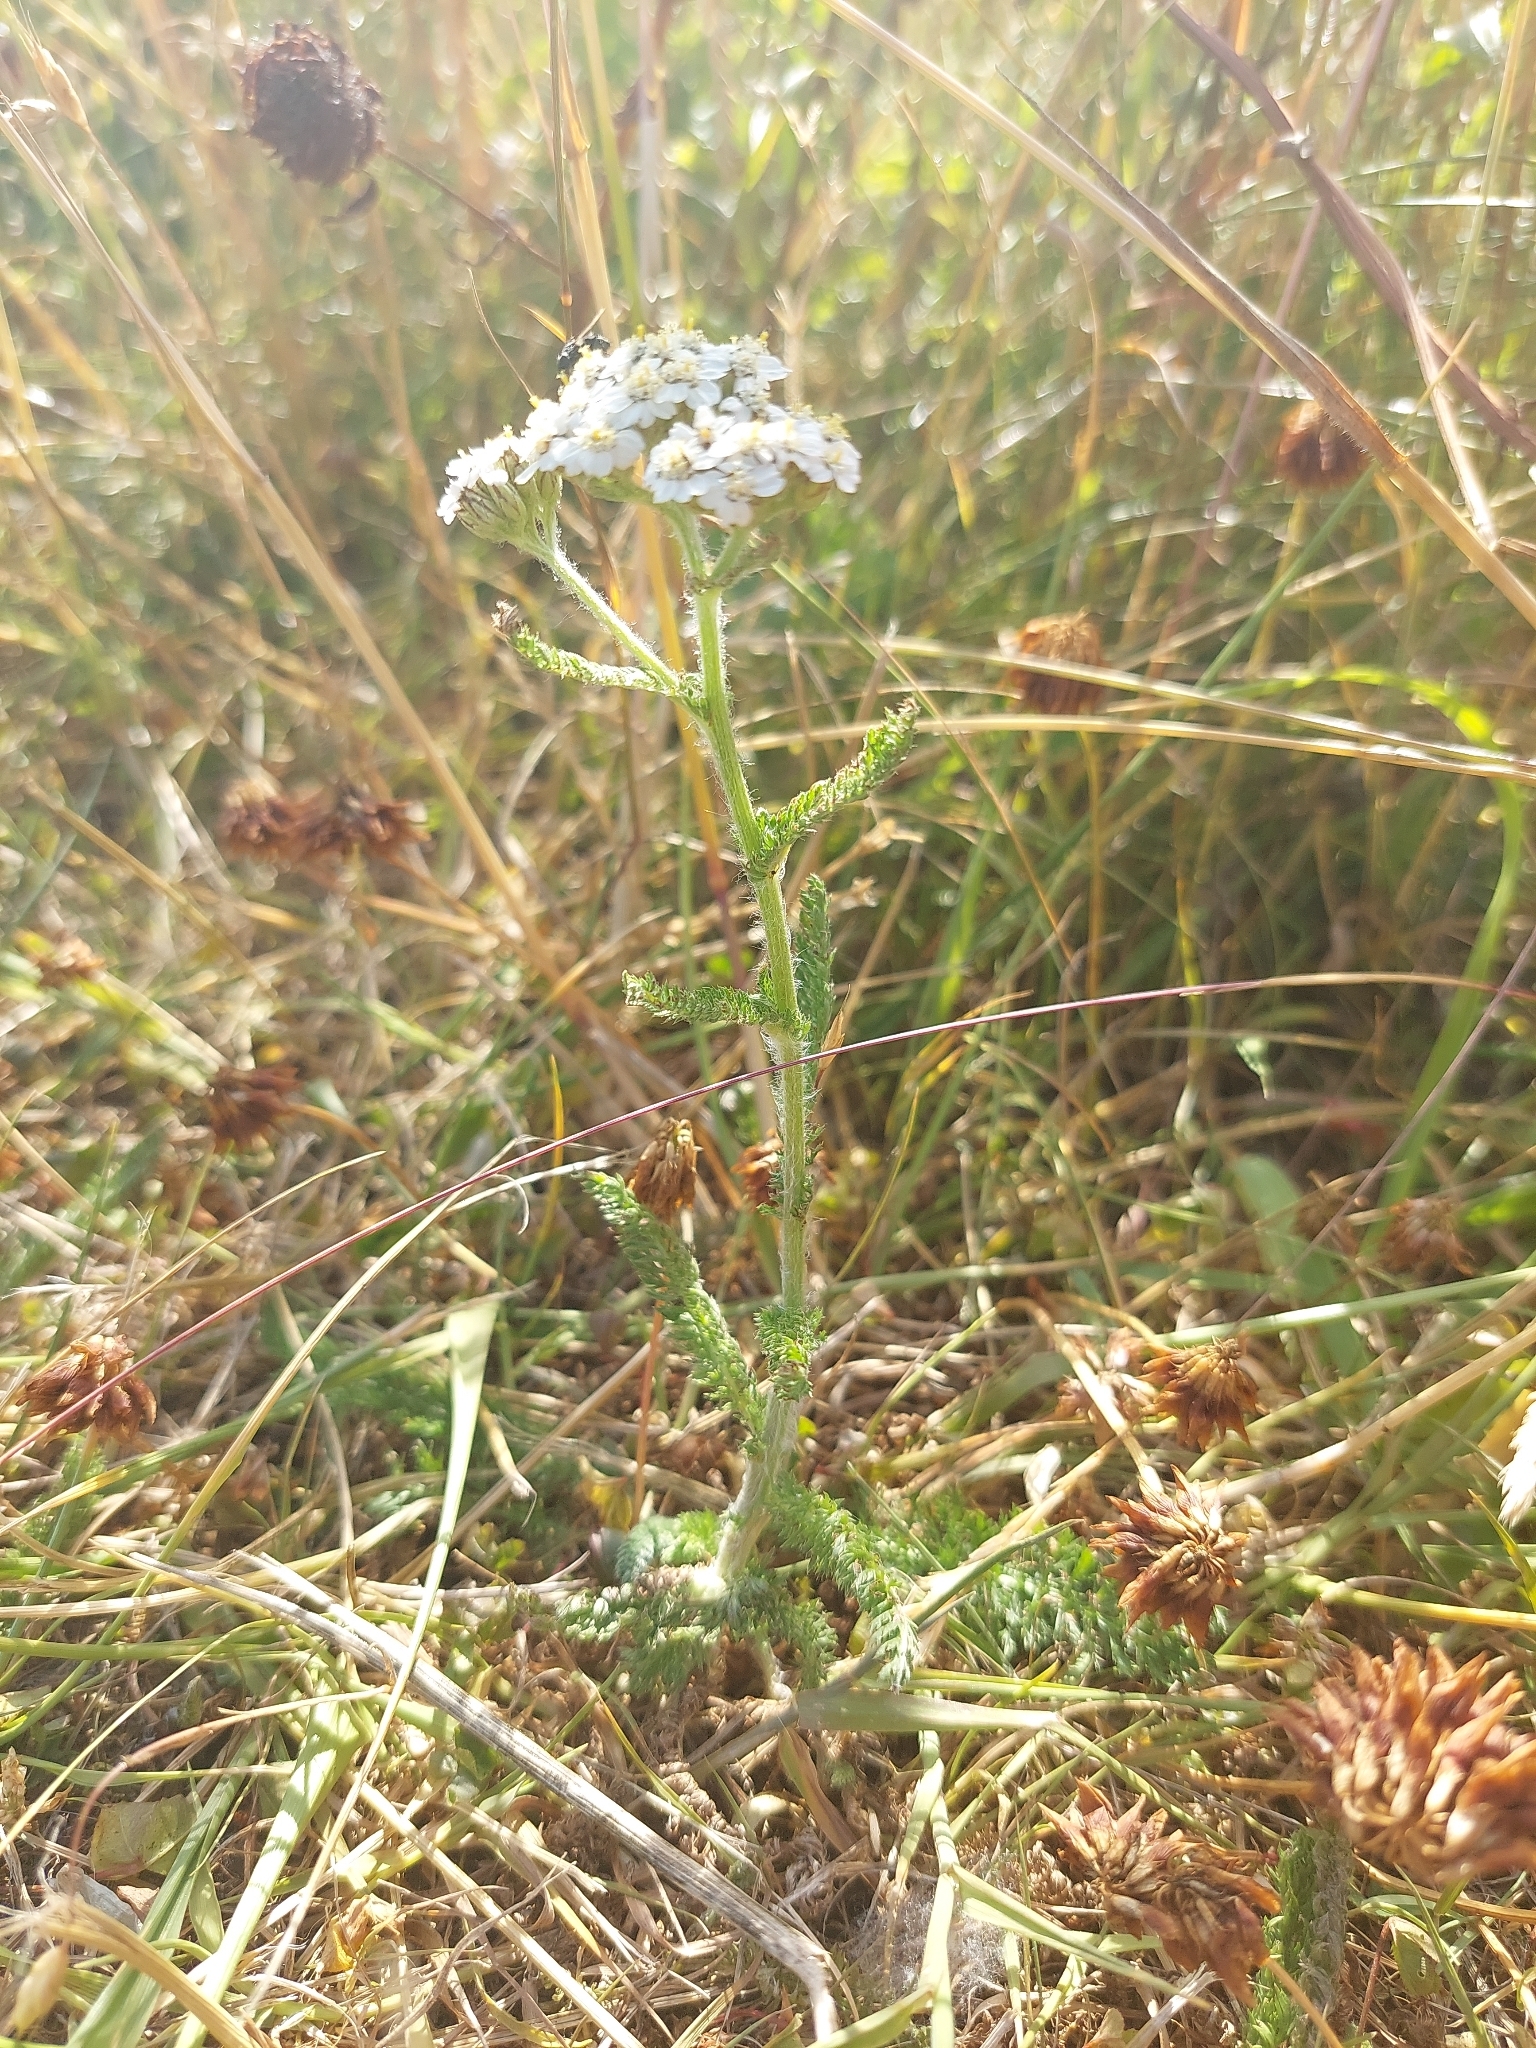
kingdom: Plantae
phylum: Tracheophyta
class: Magnoliopsida
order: Asterales
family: Asteraceae
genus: Achillea
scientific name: Achillea millefolium
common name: Yarrow
